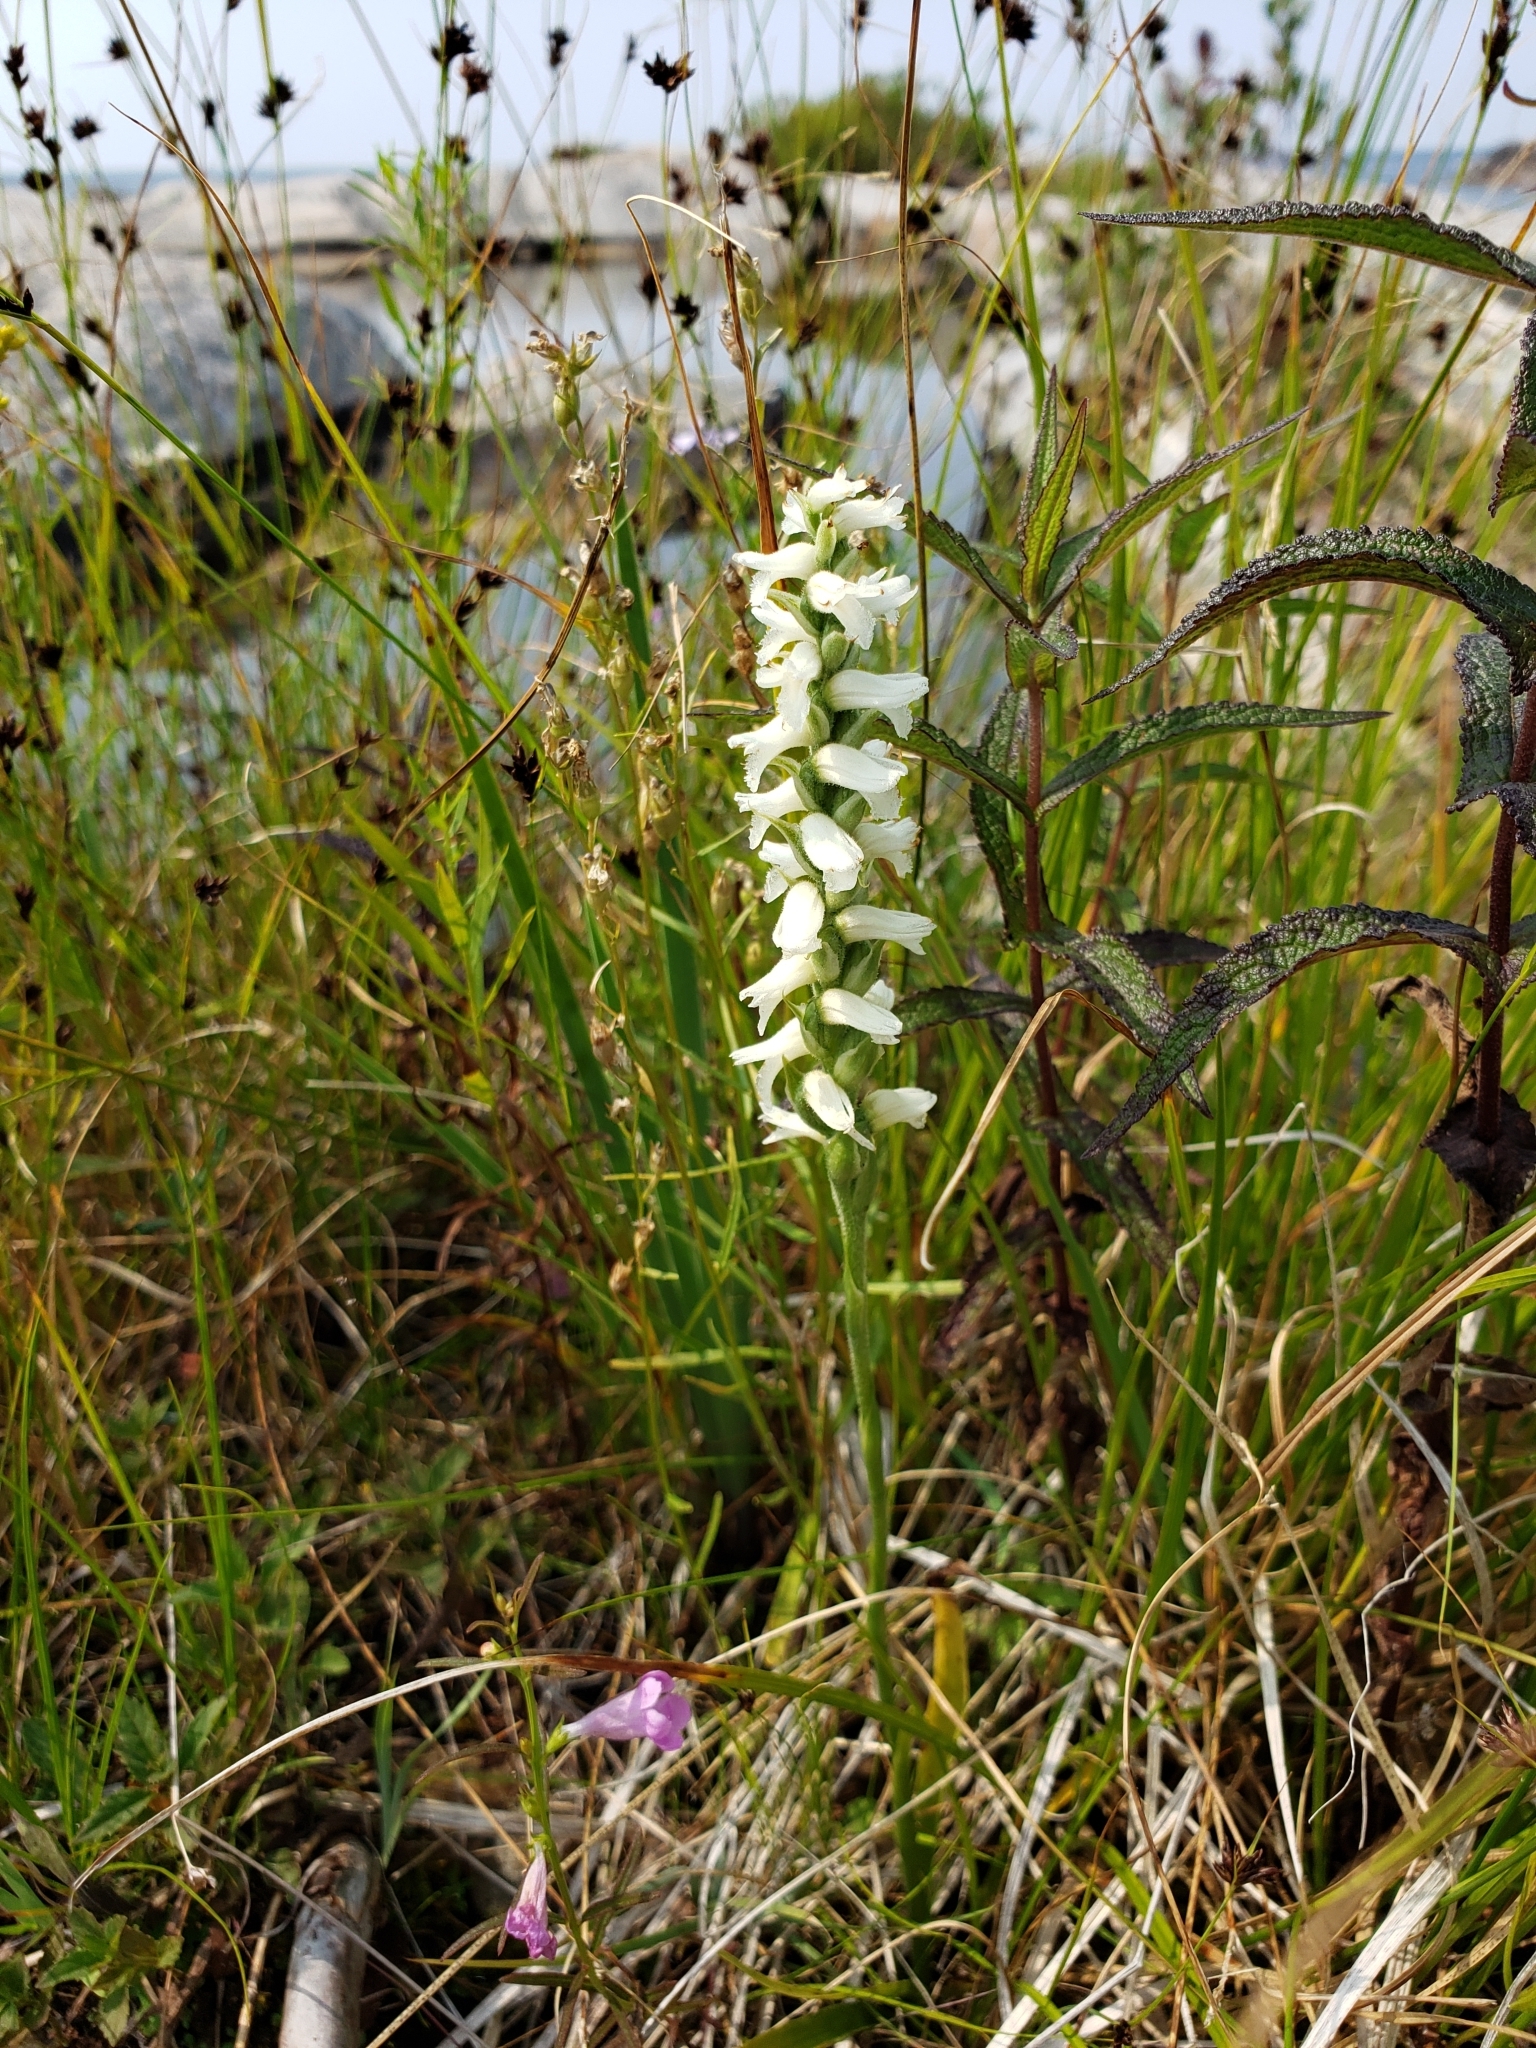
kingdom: Plantae
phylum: Tracheophyta
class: Liliopsida
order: Asparagales
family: Orchidaceae
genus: Spiranthes
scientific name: Spiranthes incurva
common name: Sphinx ladies'-tresses
